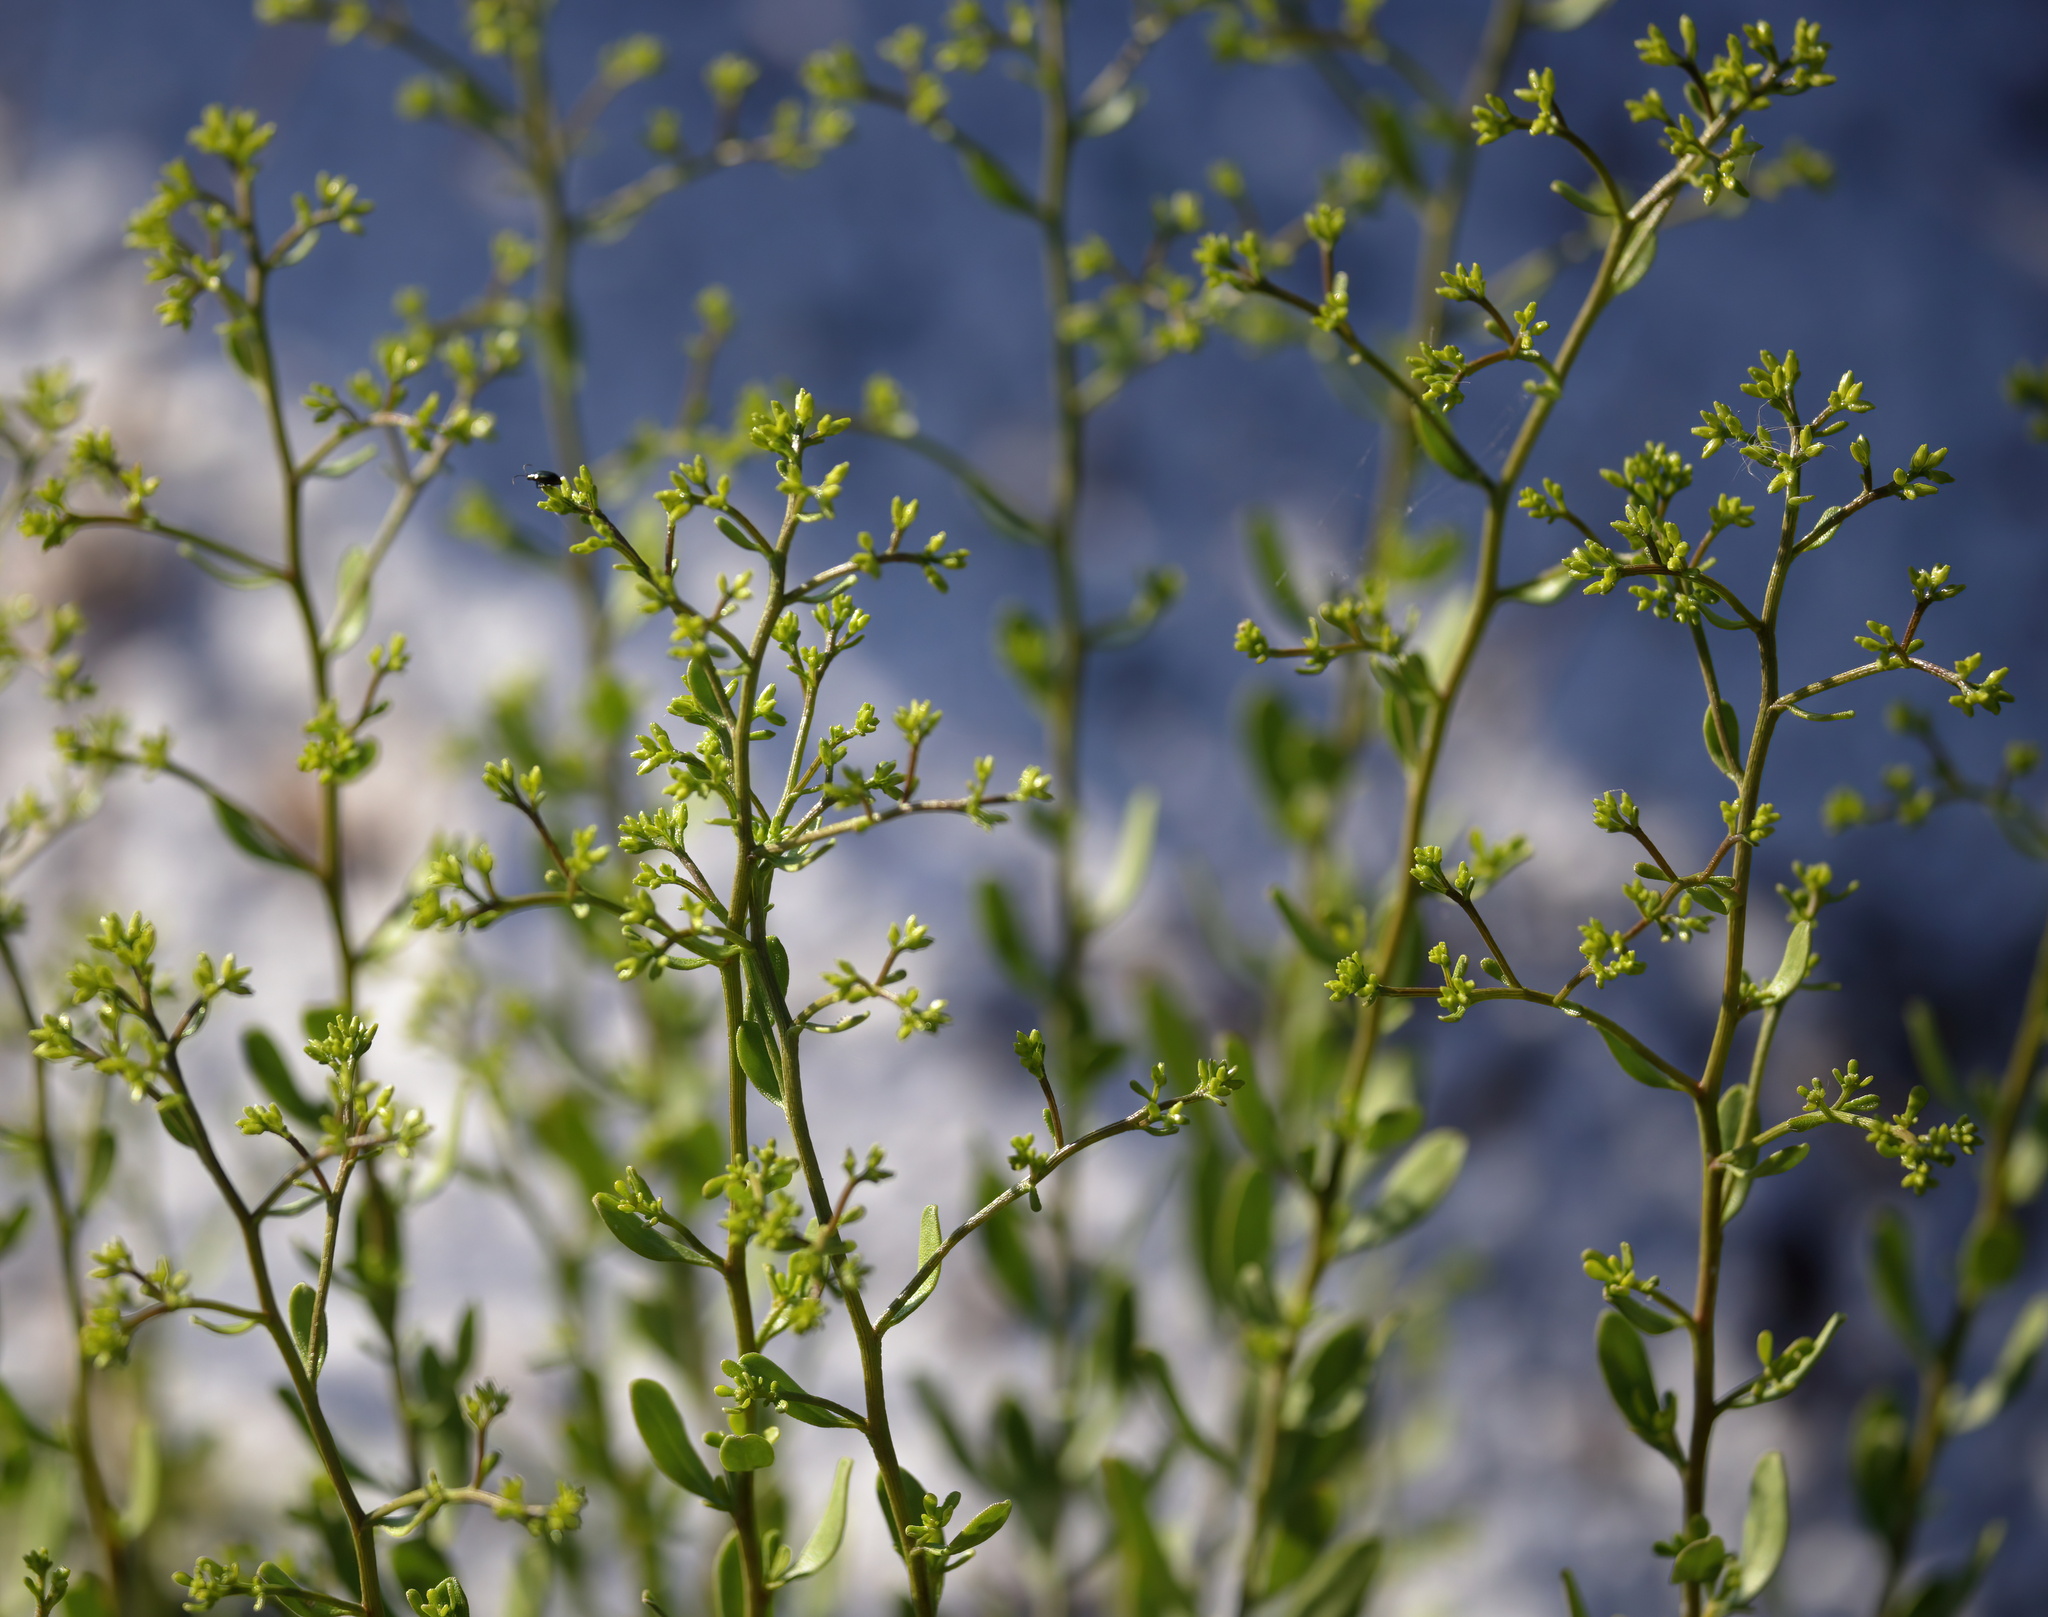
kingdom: Plantae
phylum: Tracheophyta
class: Magnoliopsida
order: Asterales
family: Asteraceae
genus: Chrysoma
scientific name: Chrysoma pauciflosculosa
